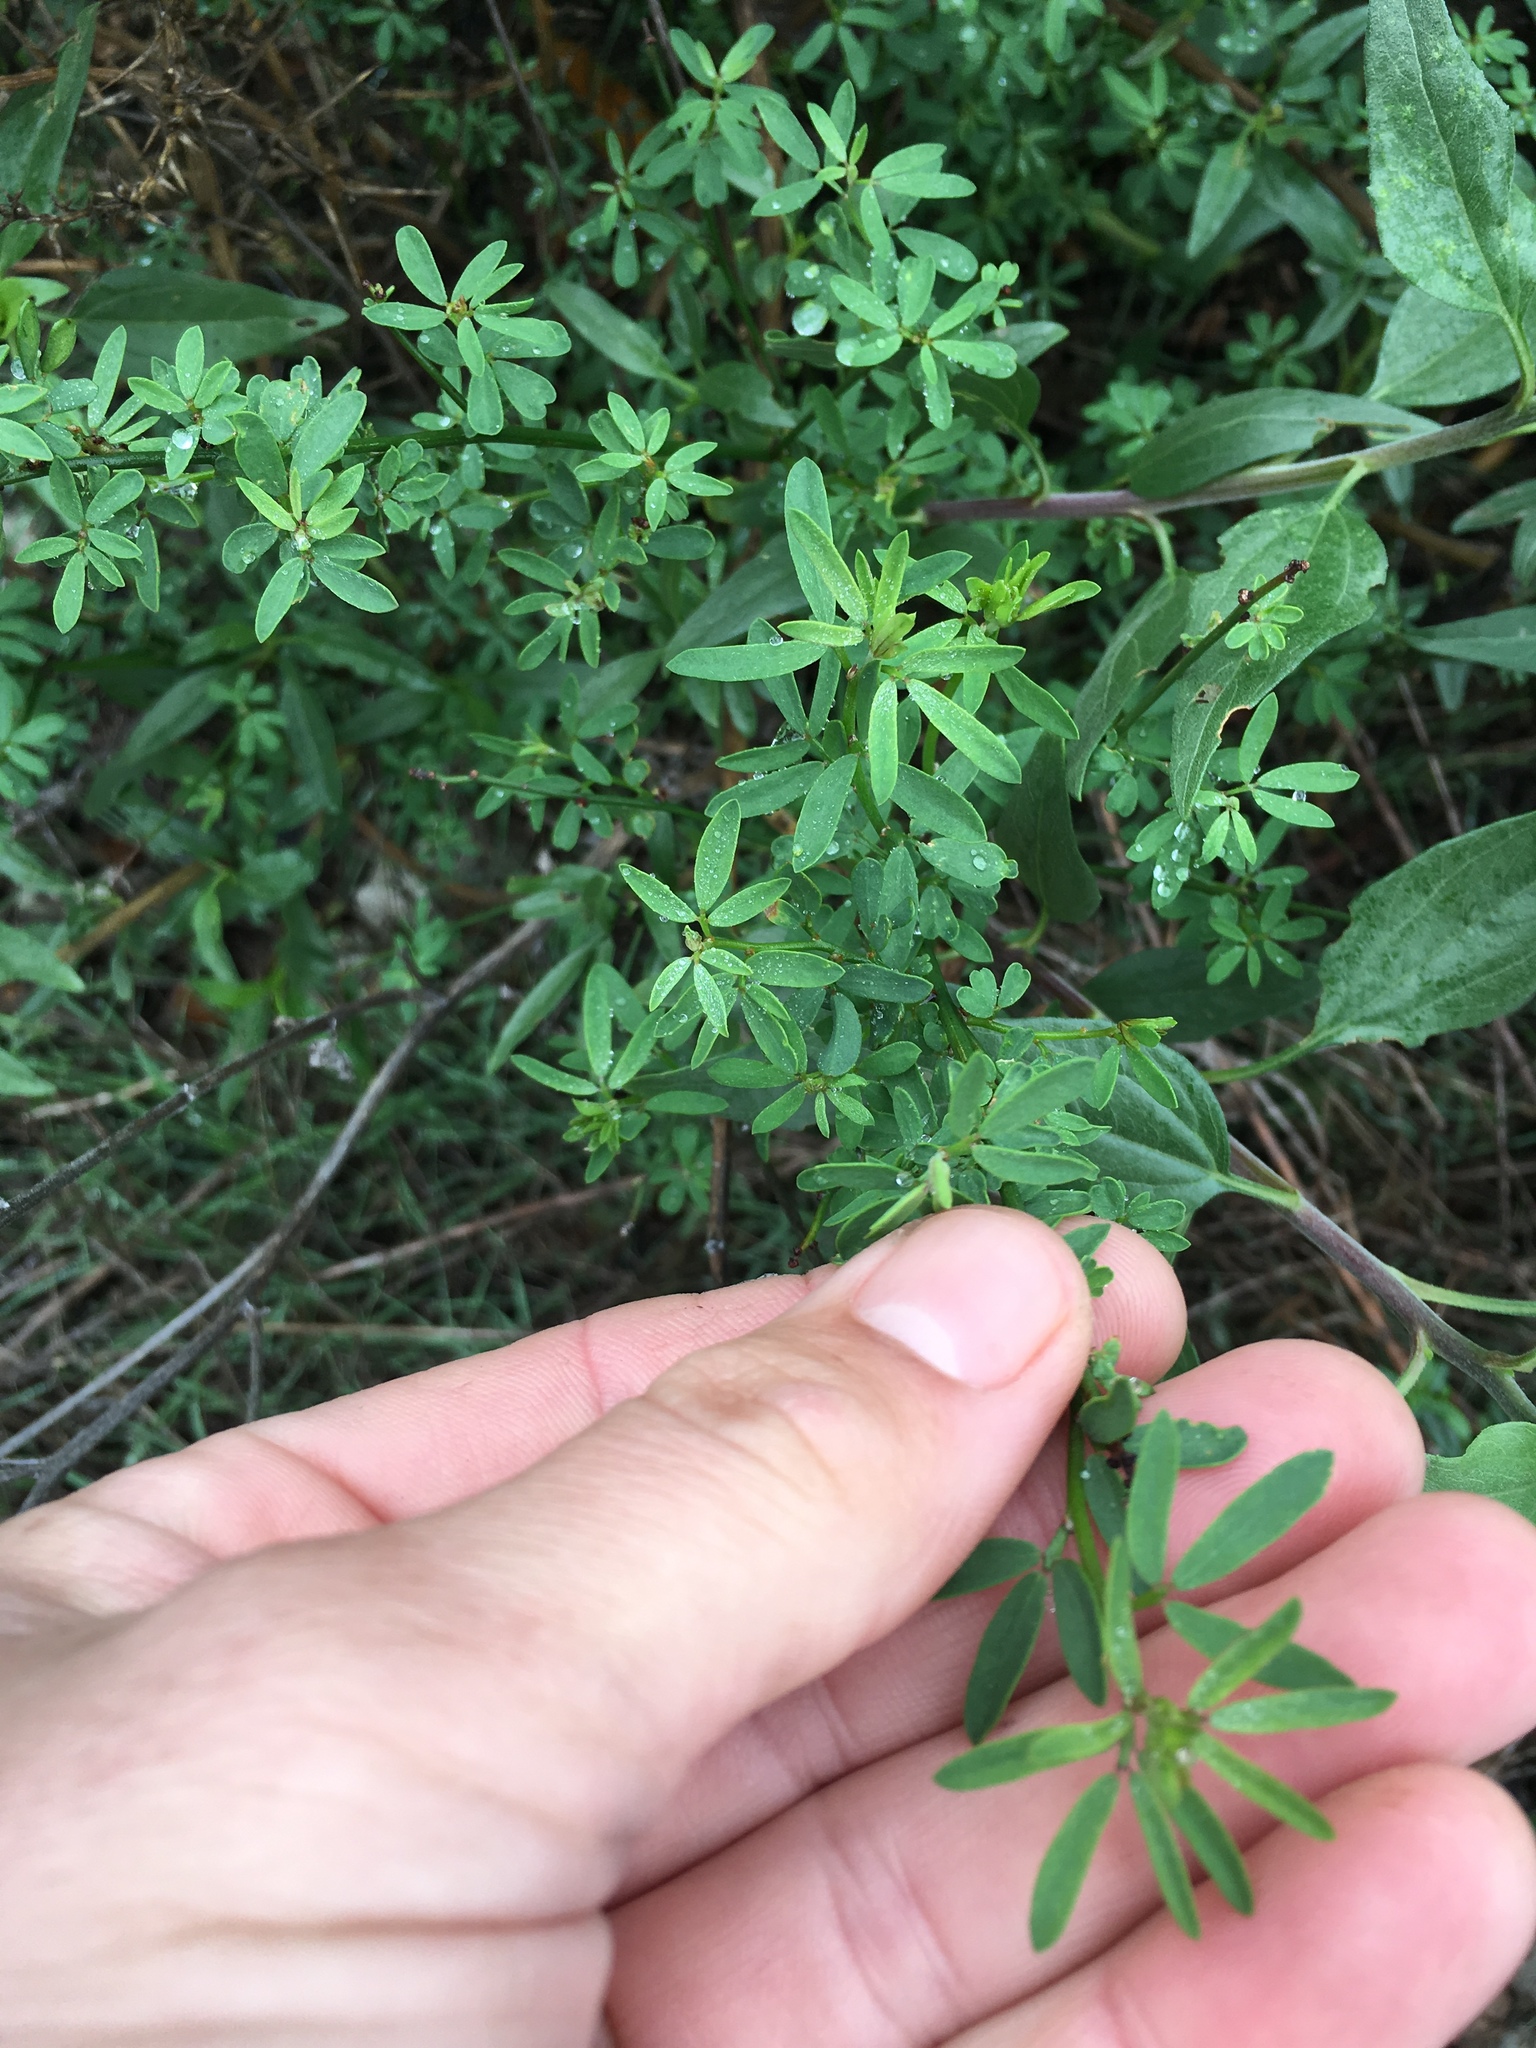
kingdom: Plantae
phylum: Tracheophyta
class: Magnoliopsida
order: Fabales
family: Fabaceae
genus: Acmispon
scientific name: Acmispon glaber
